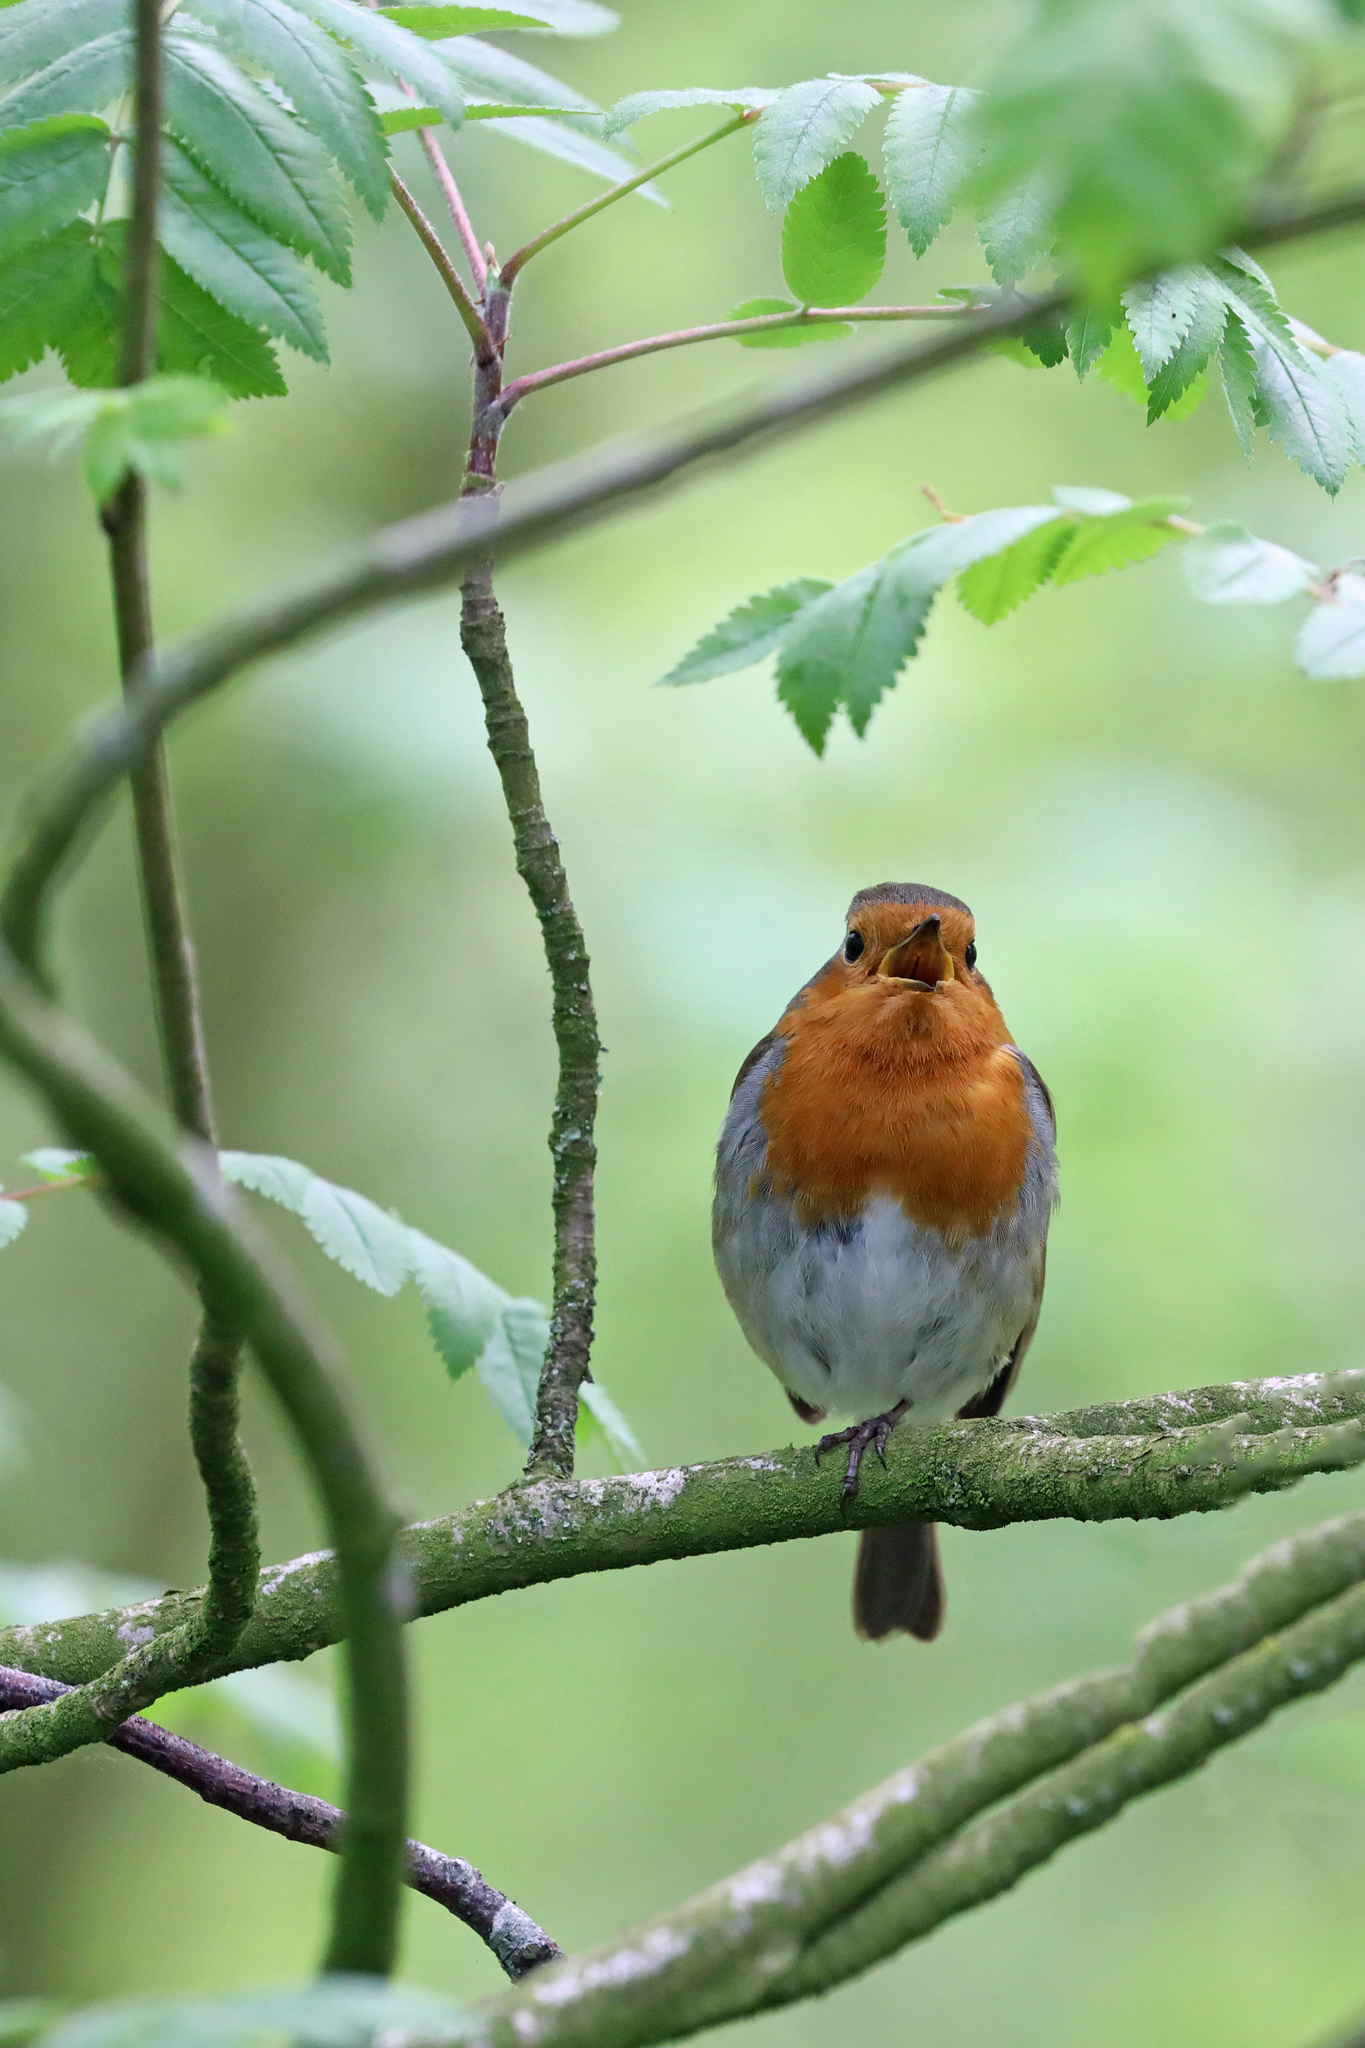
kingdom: Animalia
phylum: Chordata
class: Aves
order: Passeriformes
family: Muscicapidae
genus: Erithacus
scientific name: Erithacus rubecula
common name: European robin
